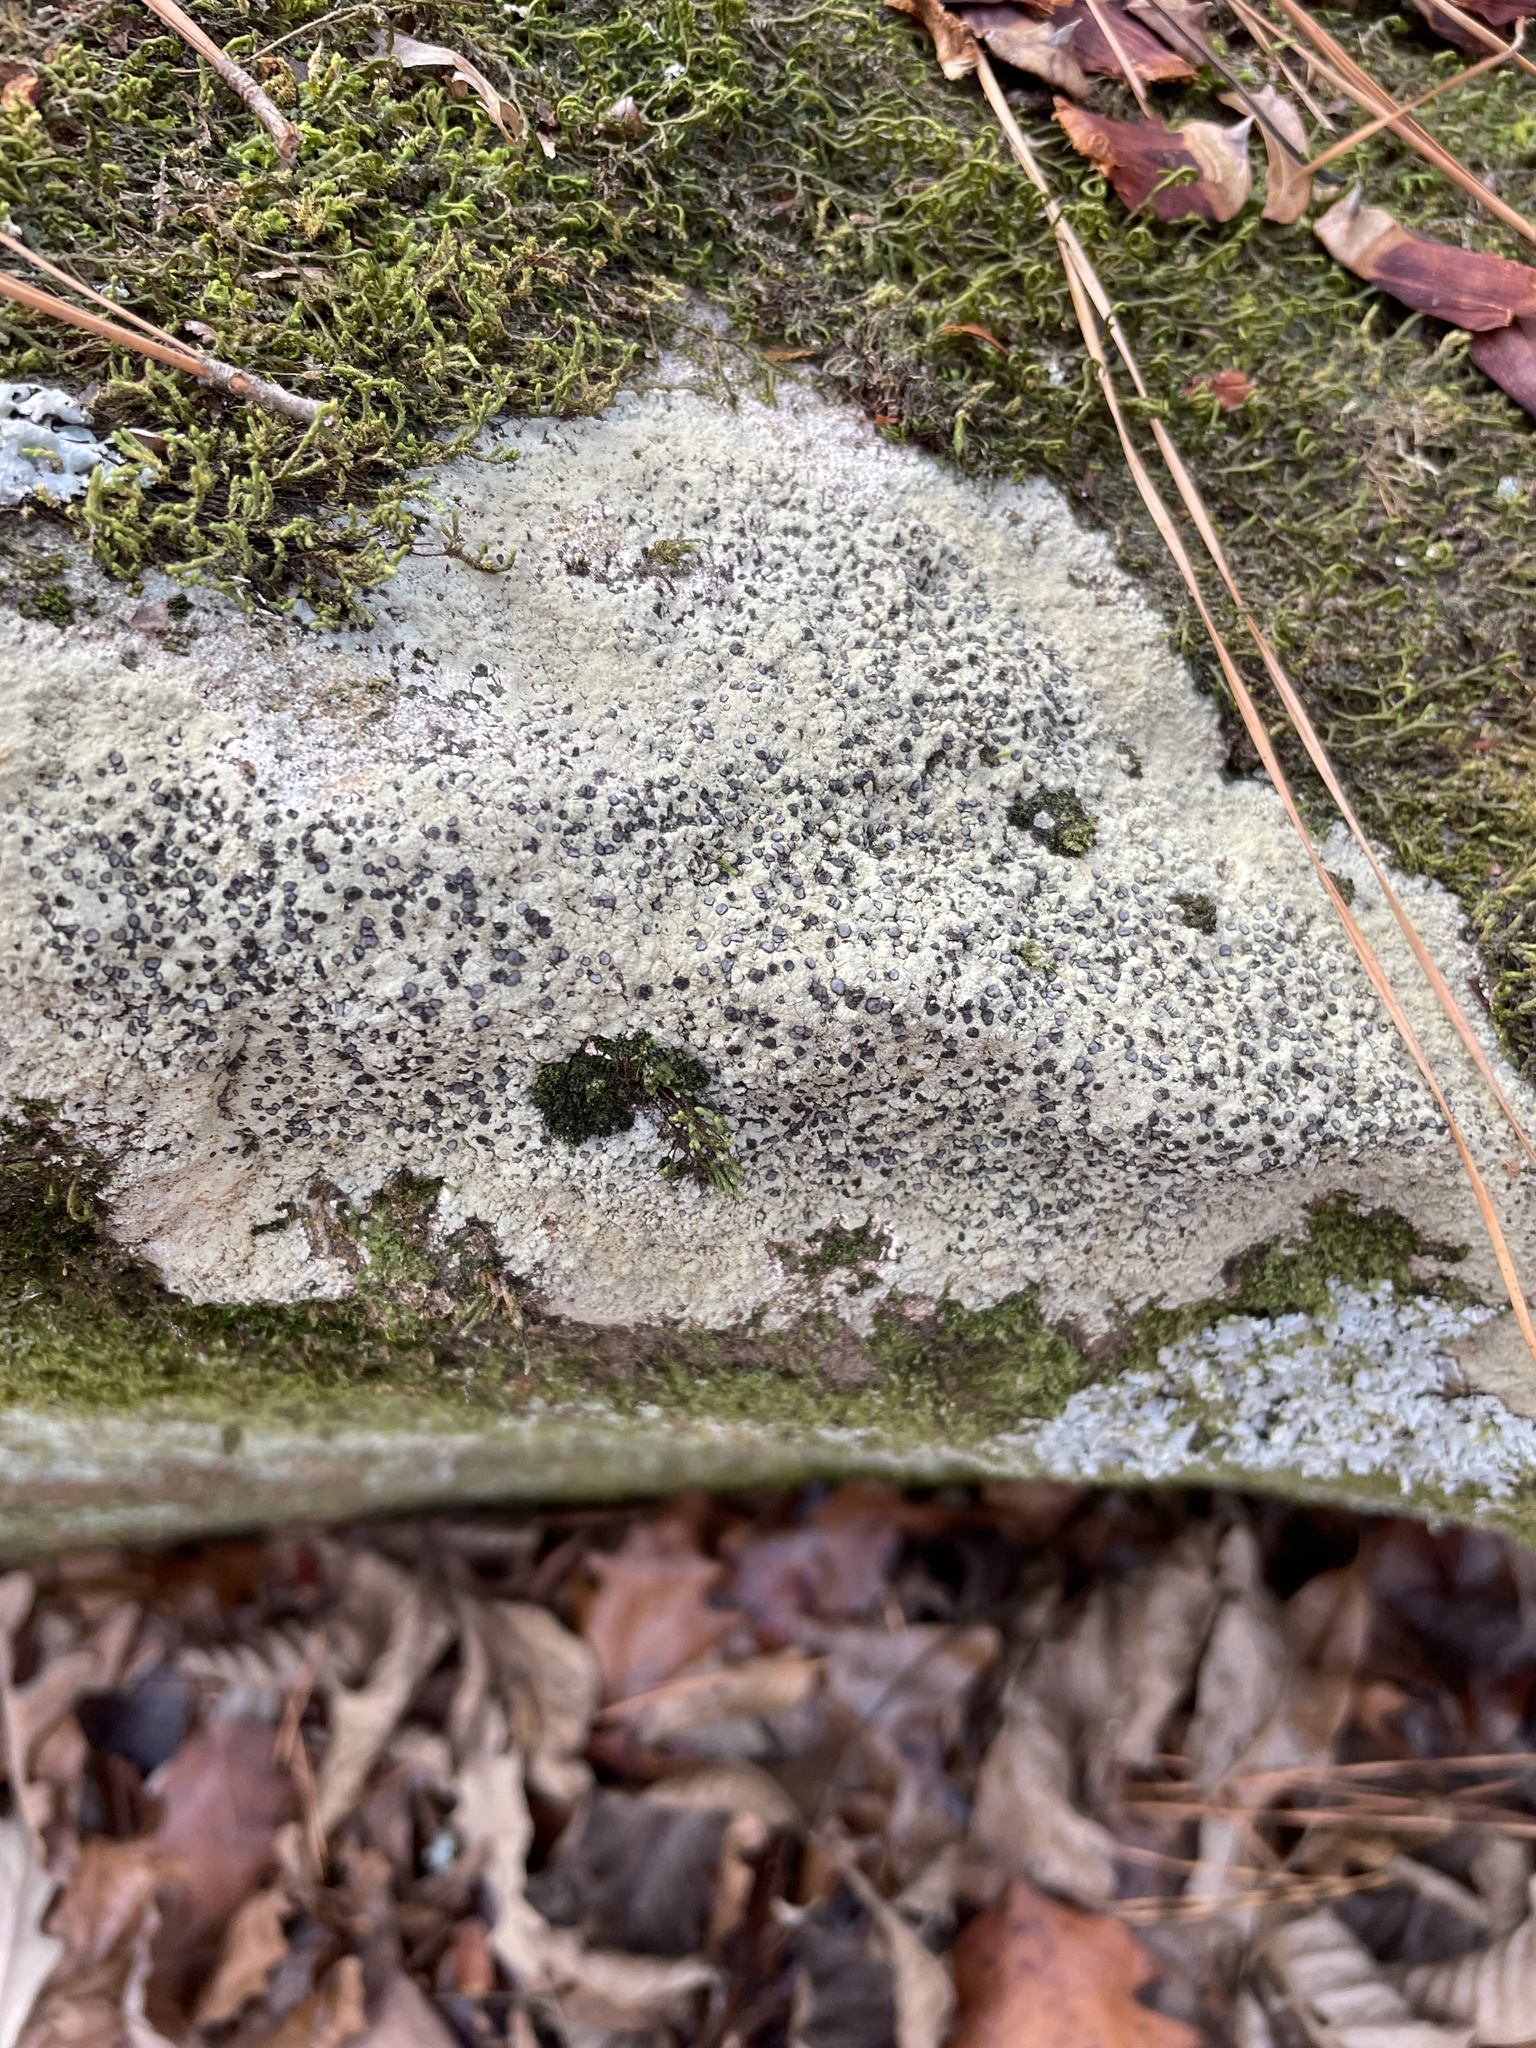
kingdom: Fungi
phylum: Ascomycota
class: Lecanoromycetes
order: Lecideales
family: Lecideaceae
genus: Porpidia
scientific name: Porpidia albocaerulescens
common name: Smokey-eyed boulder lichen
